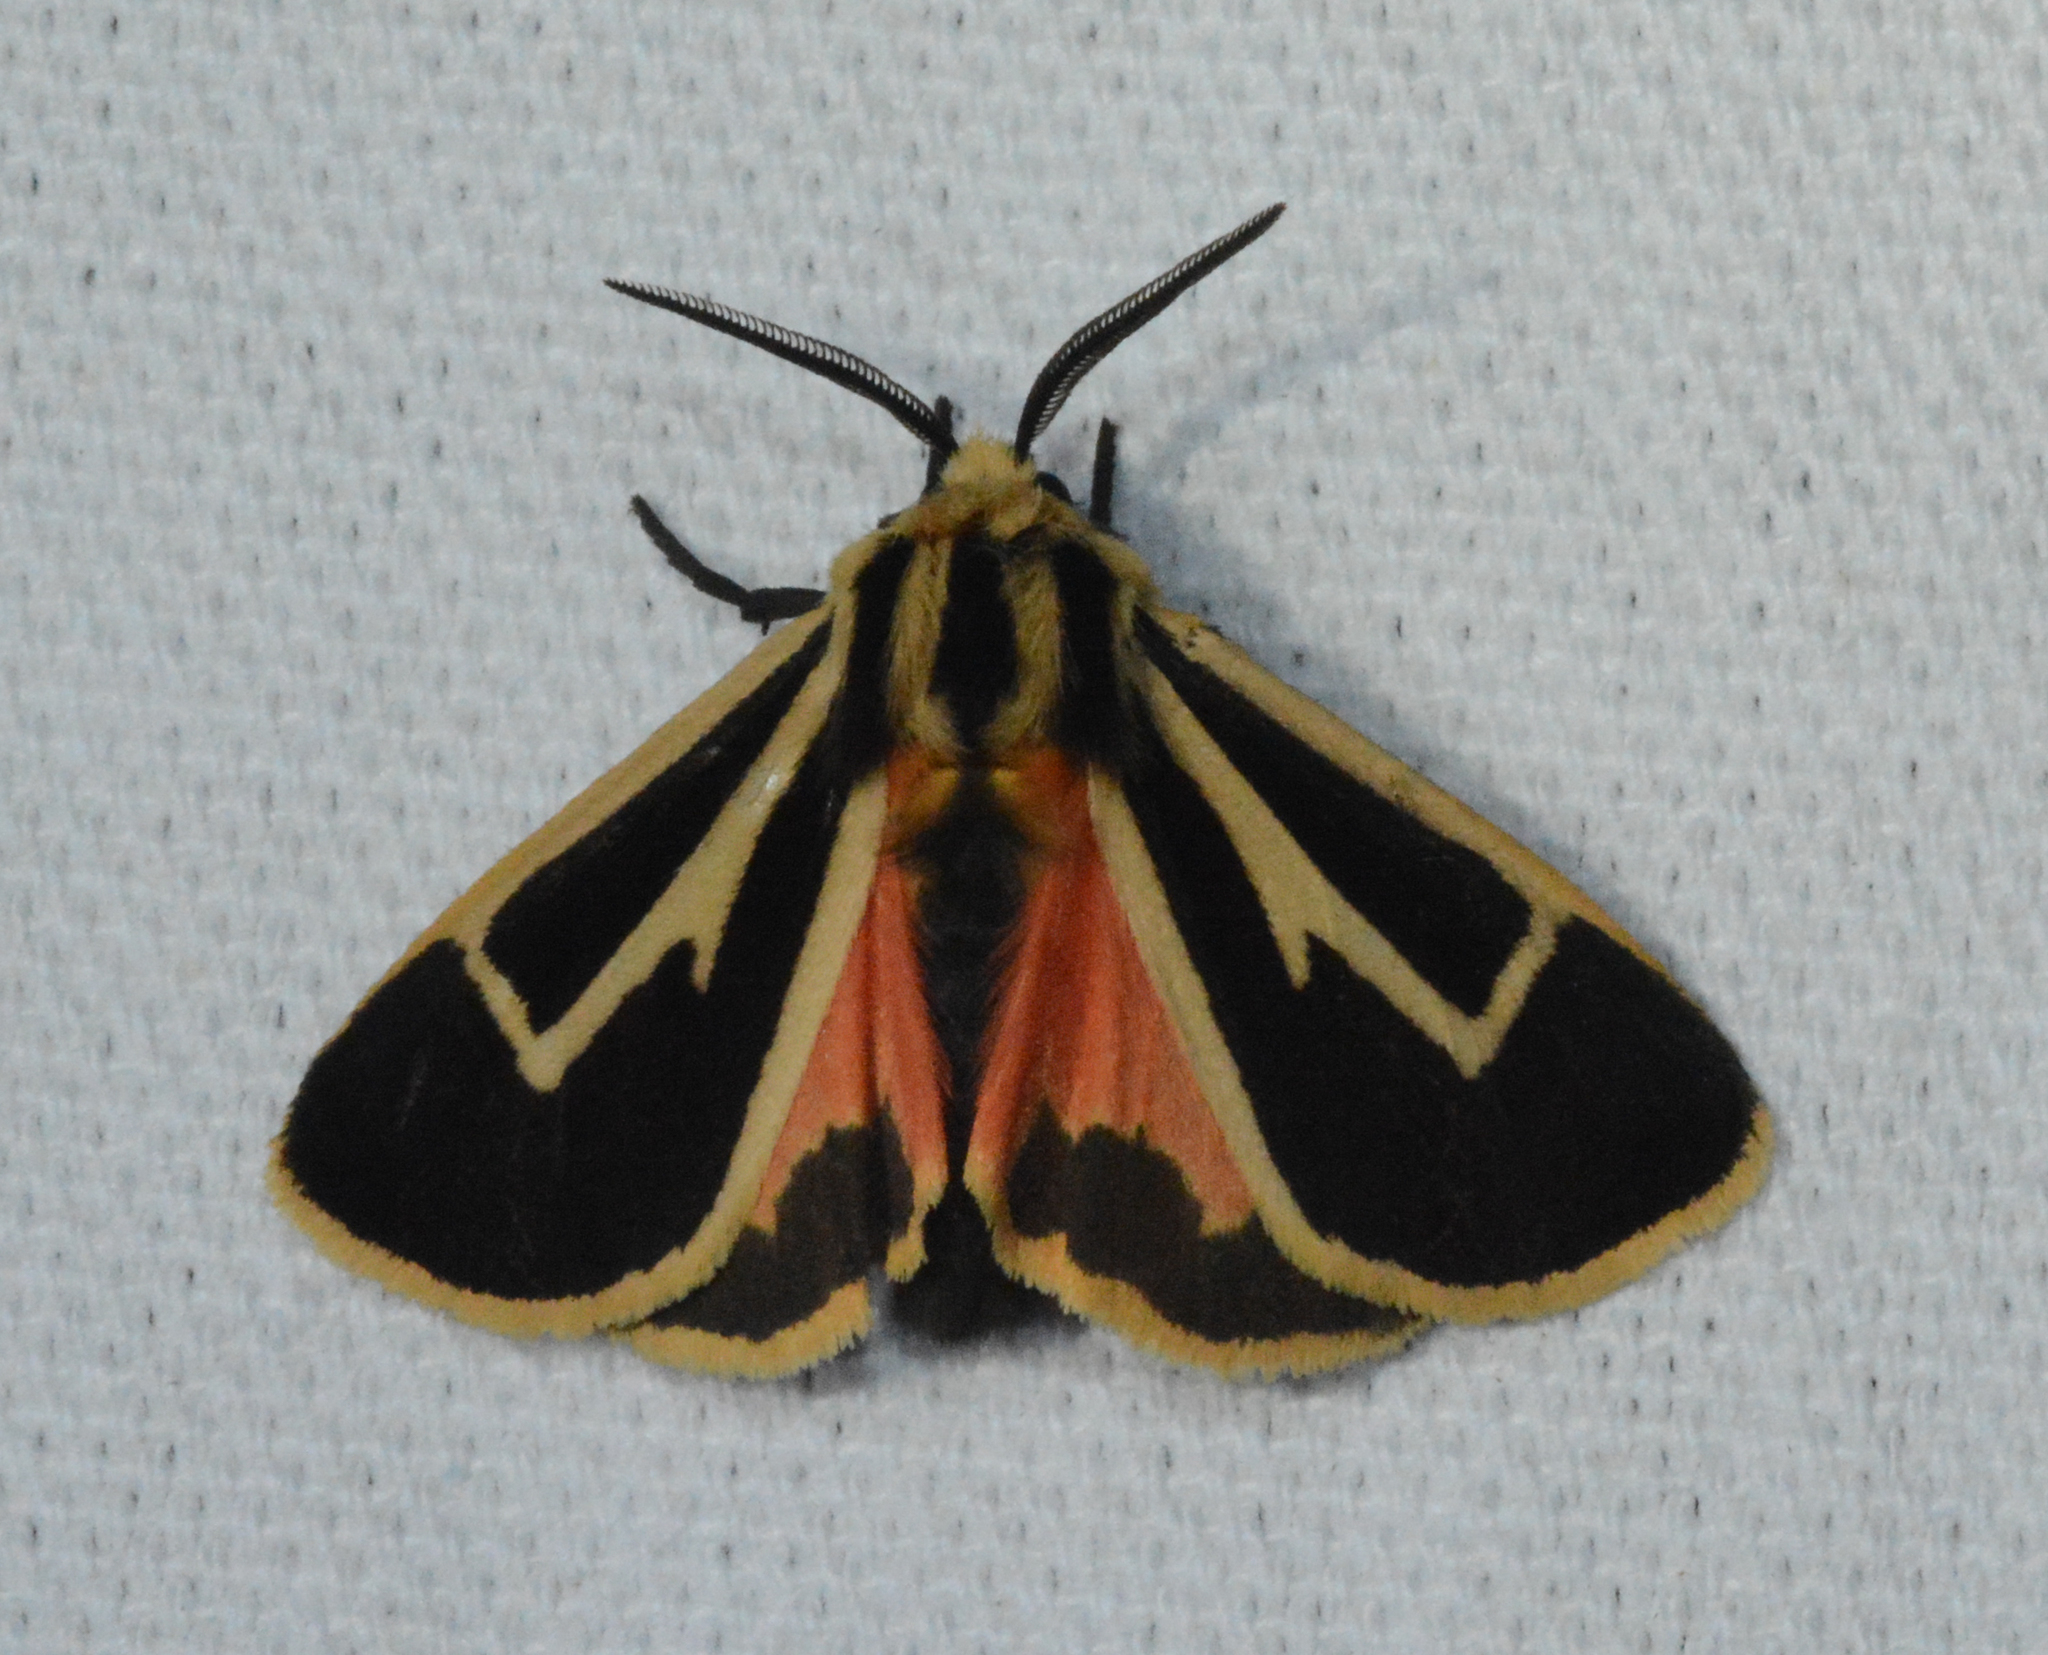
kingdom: Animalia
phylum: Arthropoda
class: Insecta
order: Lepidoptera
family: Erebidae
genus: Apantesis
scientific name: Apantesis vittata
